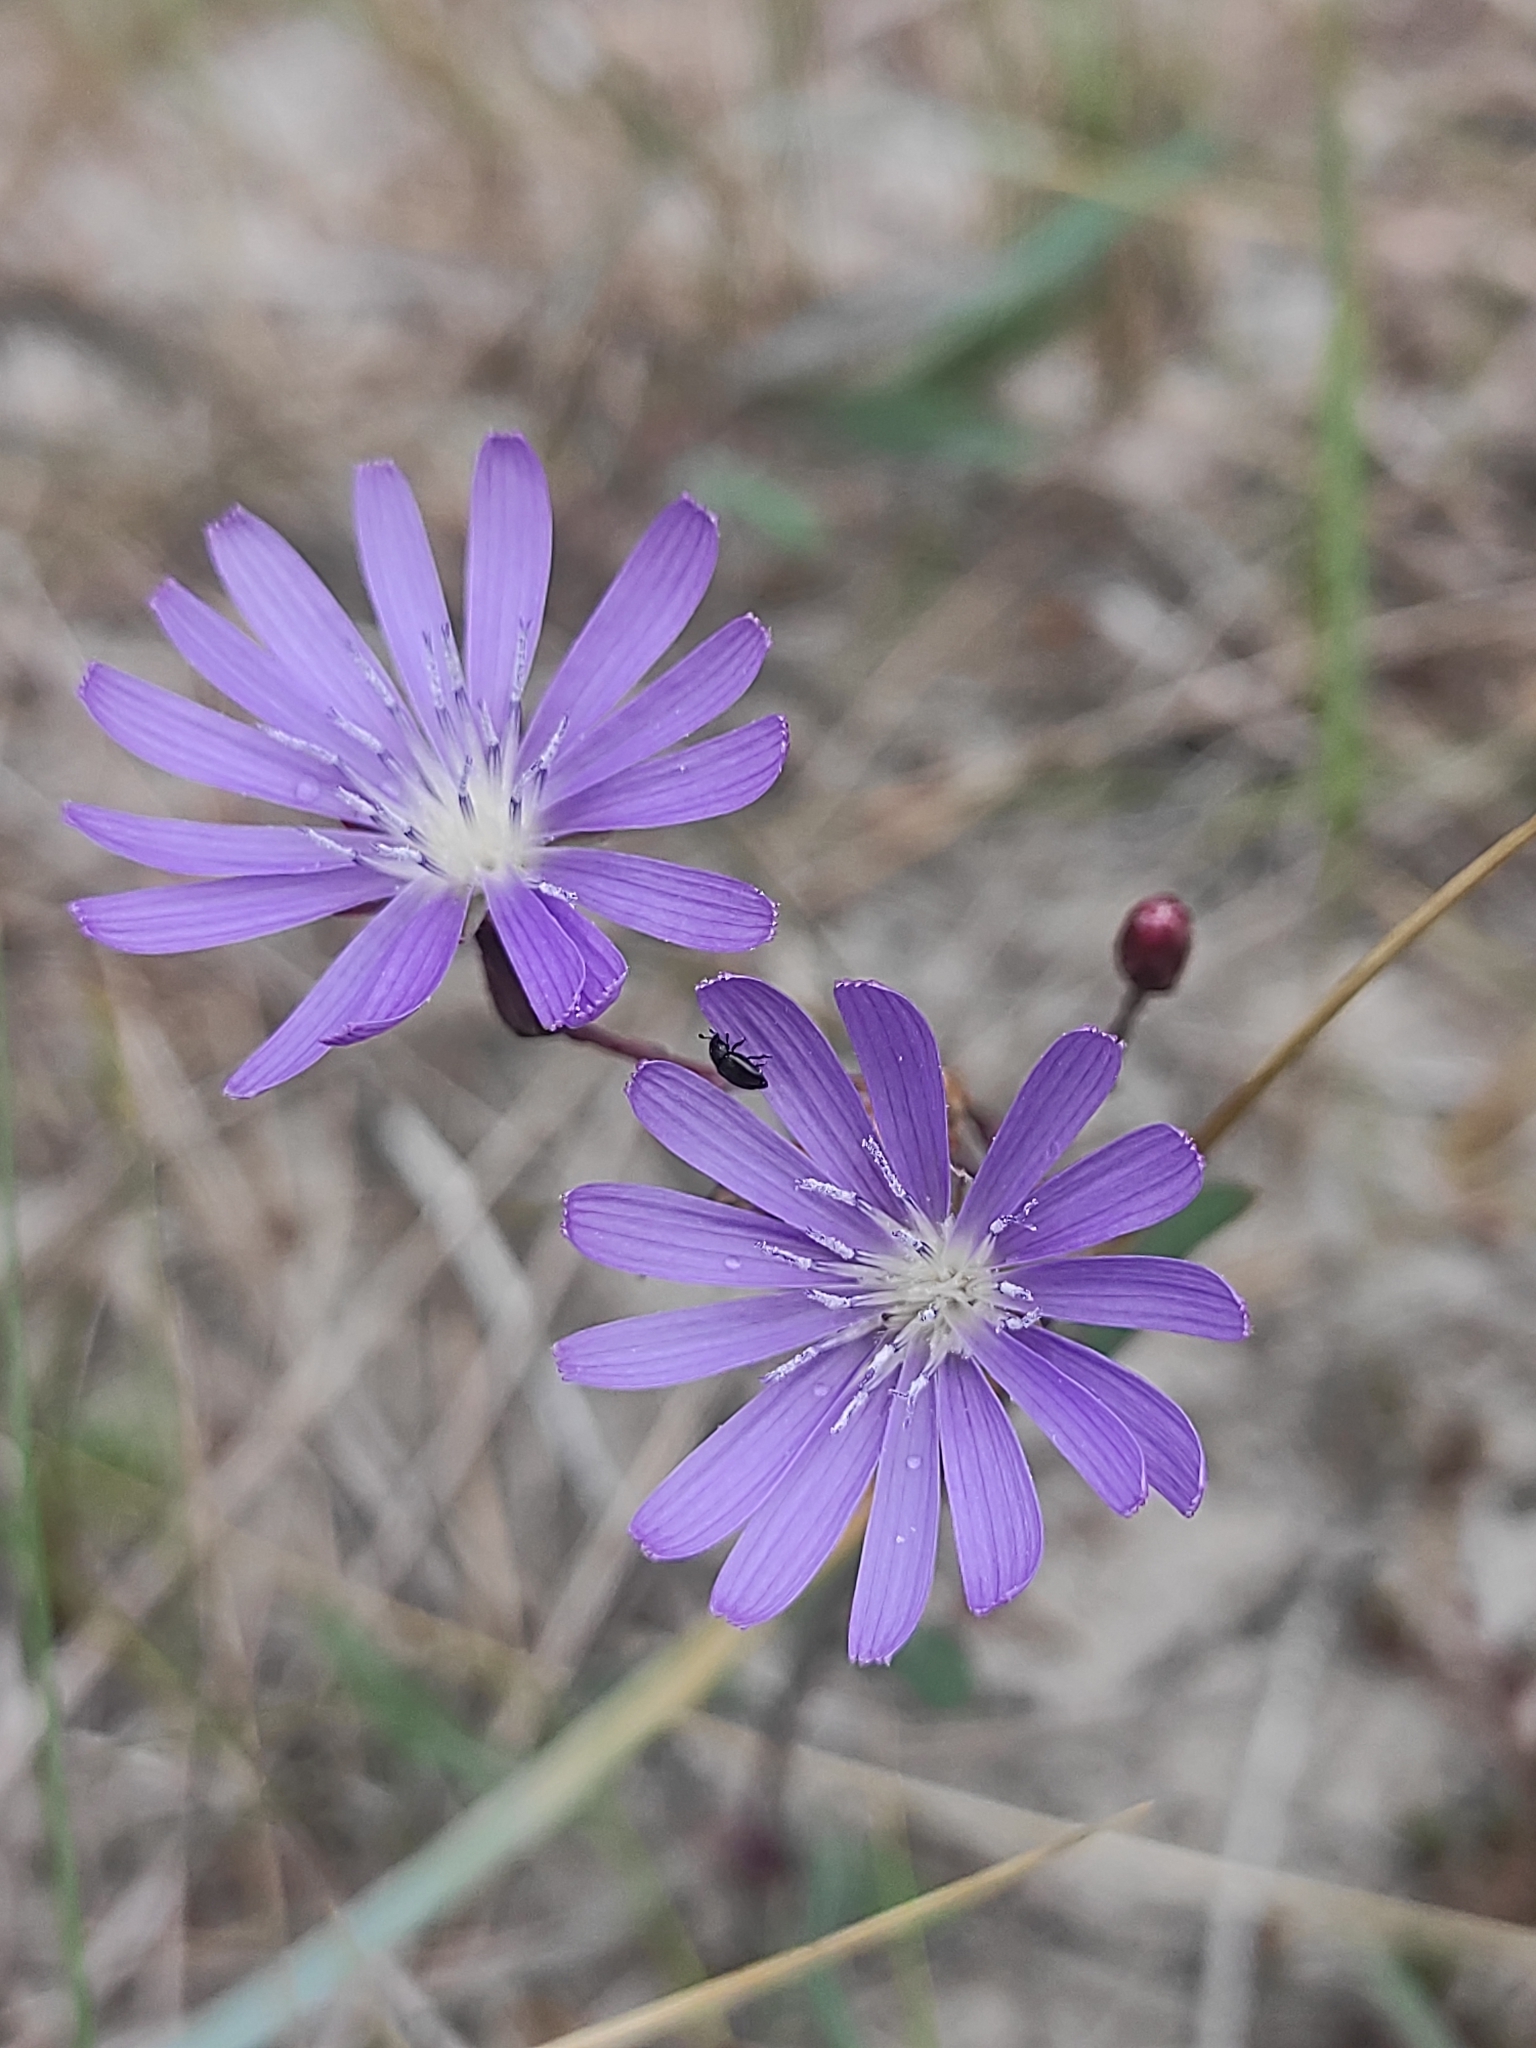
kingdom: Plantae
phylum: Tracheophyta
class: Magnoliopsida
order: Asterales
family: Asteraceae
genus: Lactuca
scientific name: Lactuca tatarica
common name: Blue lettuce
